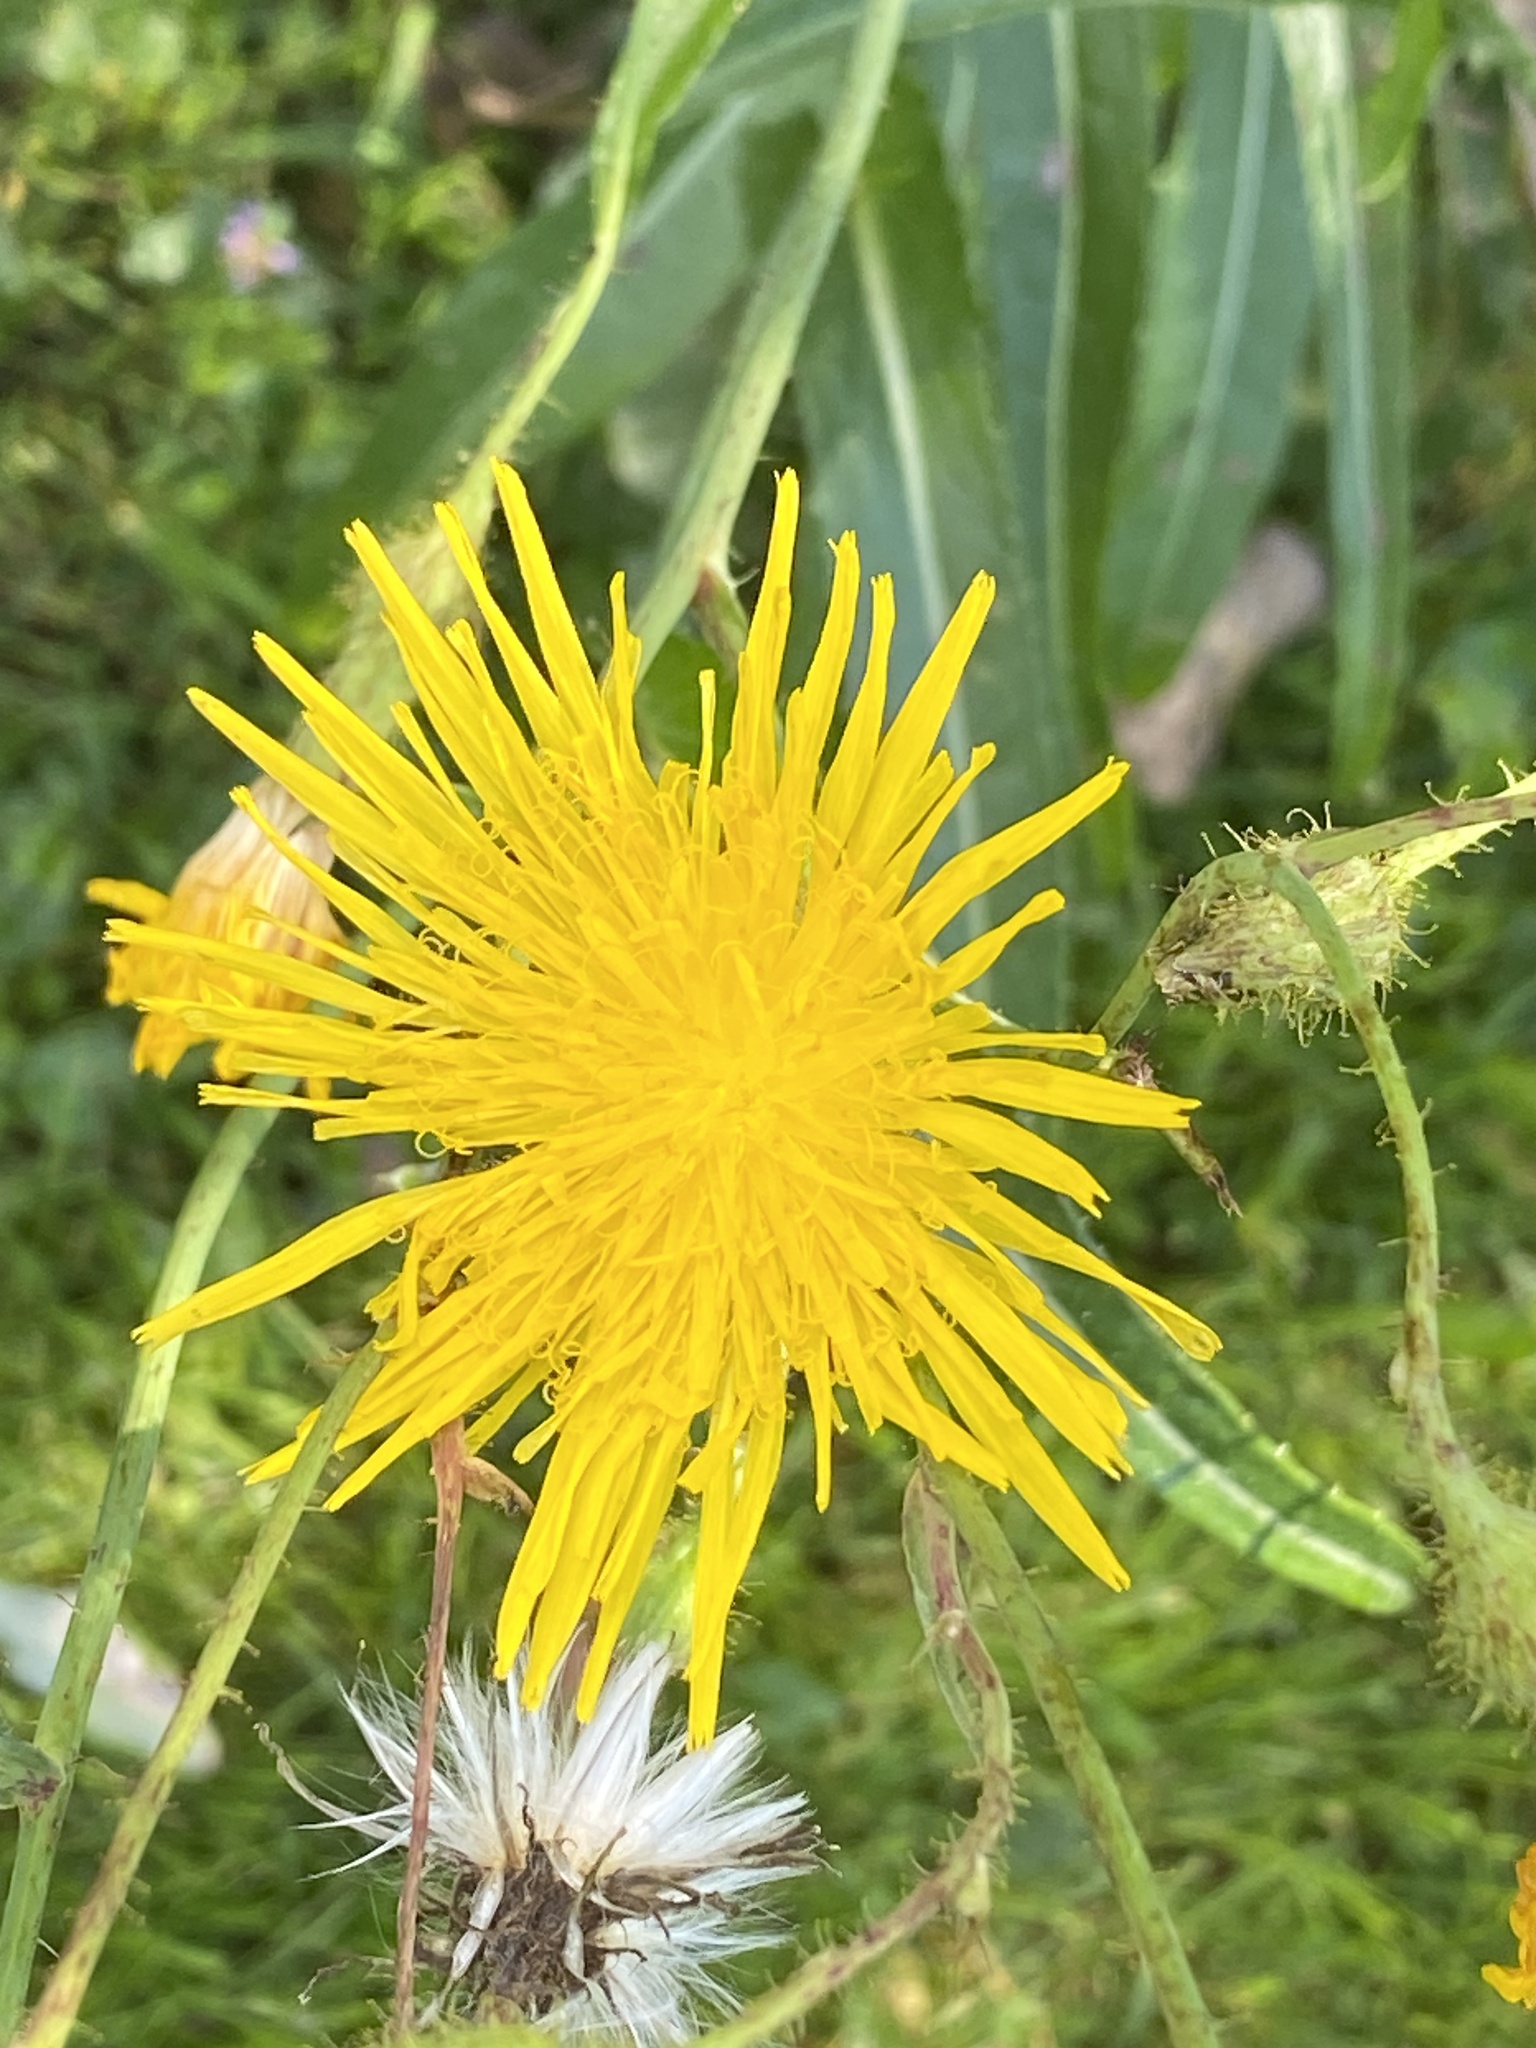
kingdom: Plantae
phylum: Tracheophyta
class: Magnoliopsida
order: Asterales
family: Asteraceae
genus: Sonchus
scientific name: Sonchus arvensis
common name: Perennial sow-thistle
